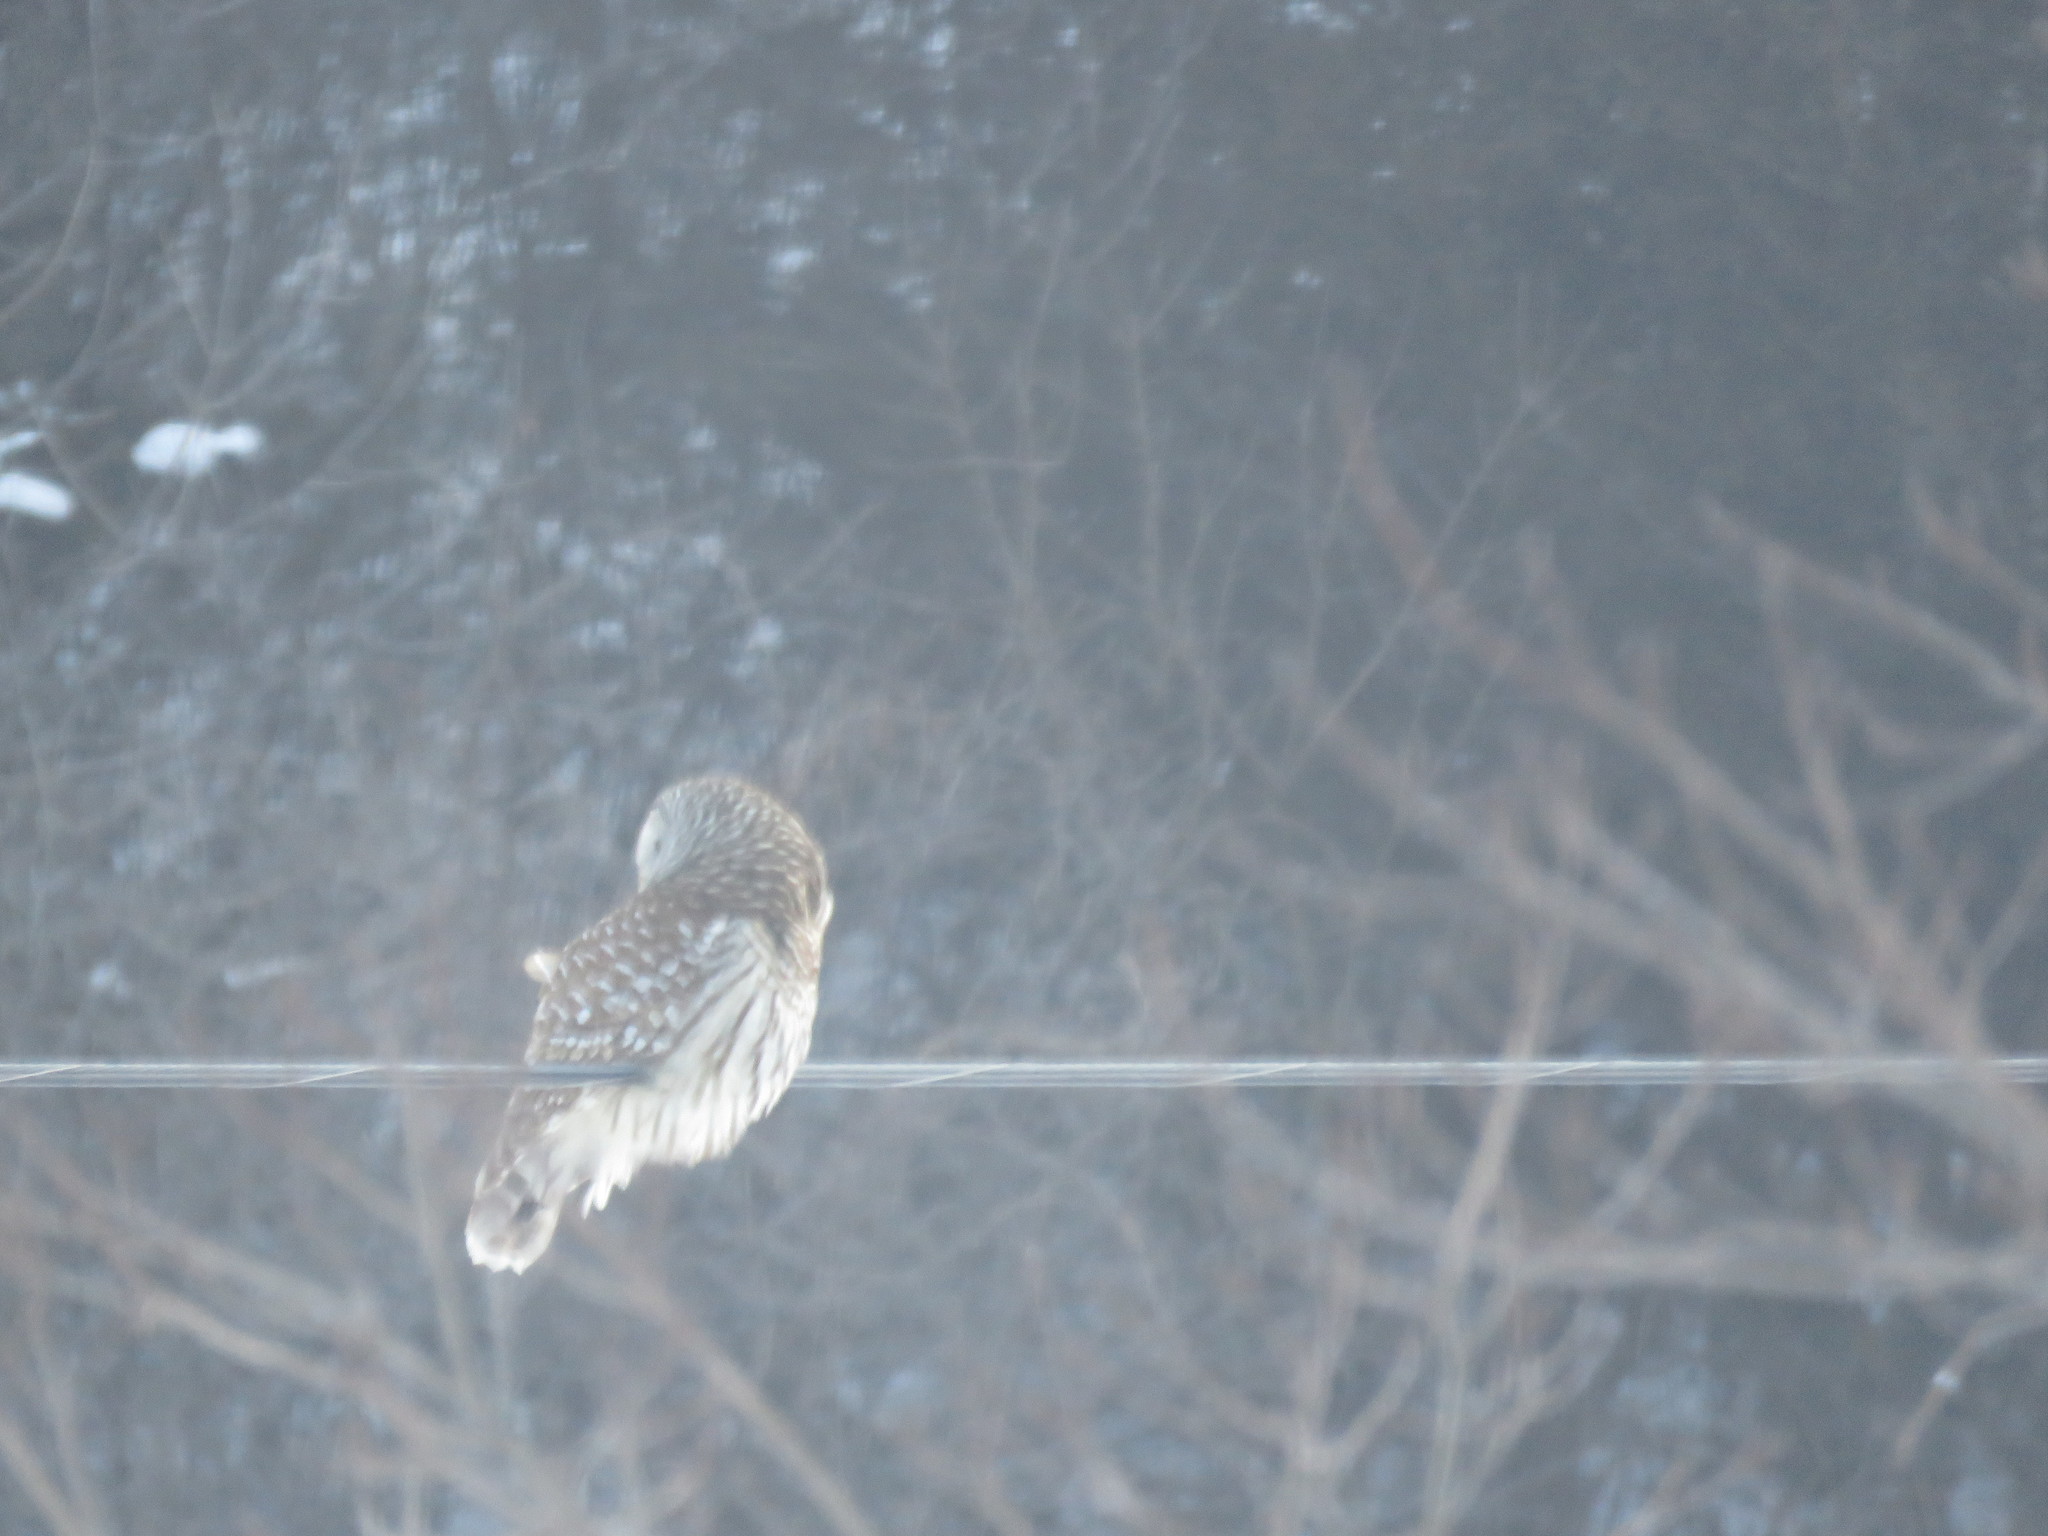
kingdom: Animalia
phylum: Chordata
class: Aves
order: Strigiformes
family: Strigidae
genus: Strix
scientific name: Strix varia
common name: Barred owl
